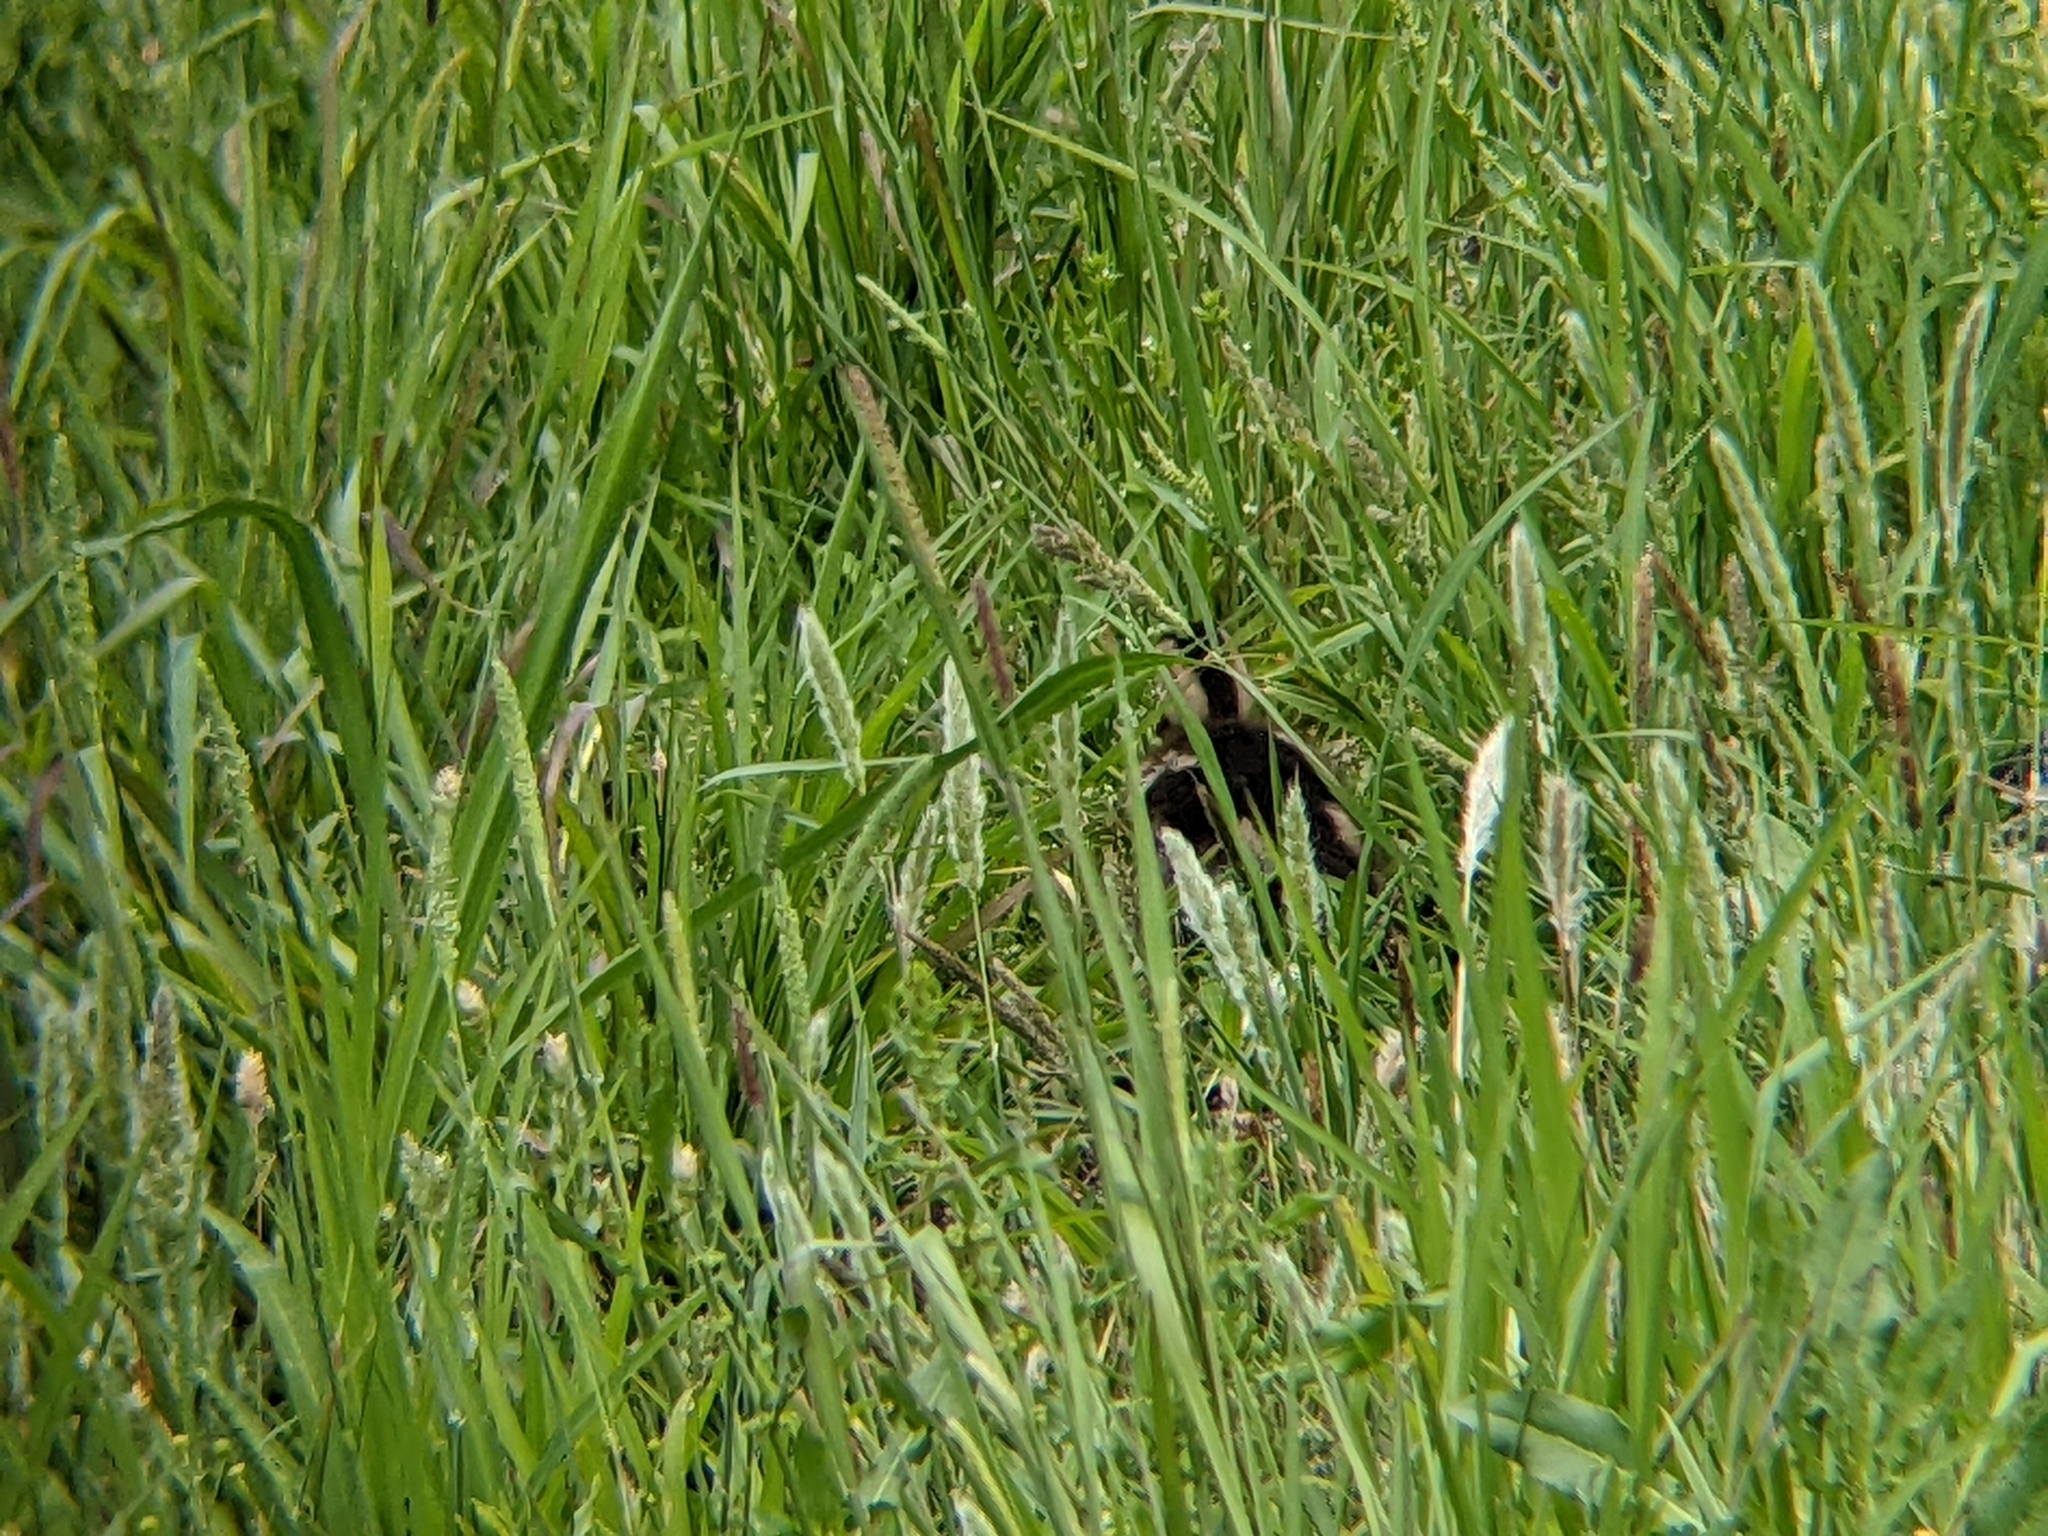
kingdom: Animalia
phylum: Chordata
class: Aves
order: Anseriformes
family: Anatidae
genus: Anas
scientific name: Anas platyrhynchos
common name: Mallard
